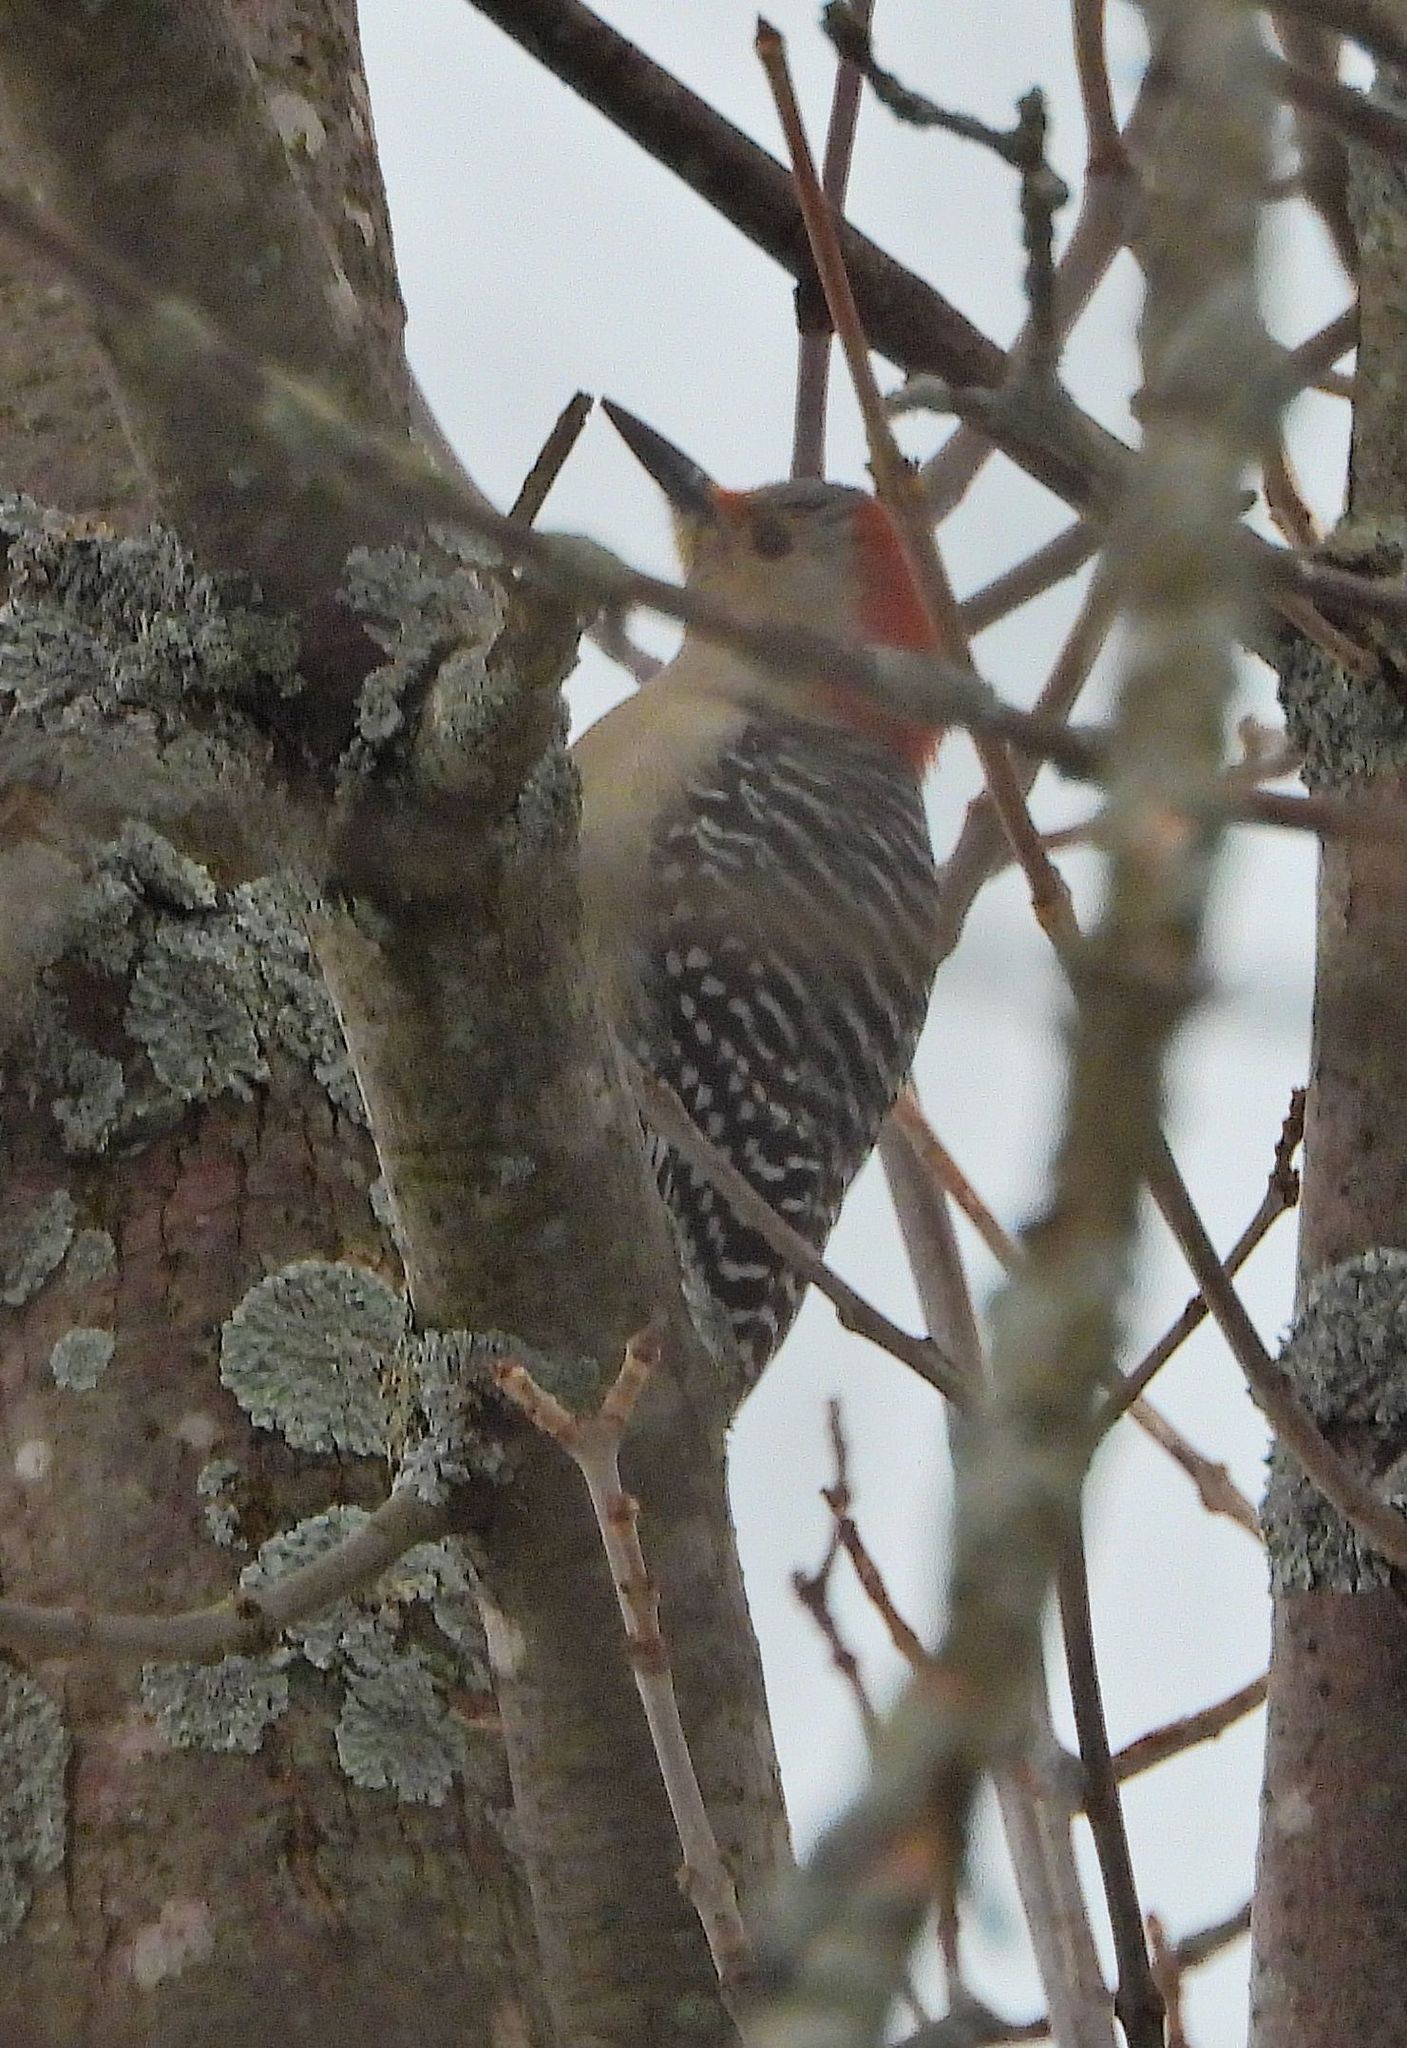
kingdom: Animalia
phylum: Chordata
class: Aves
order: Piciformes
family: Picidae
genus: Melanerpes
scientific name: Melanerpes carolinus
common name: Red-bellied woodpecker
